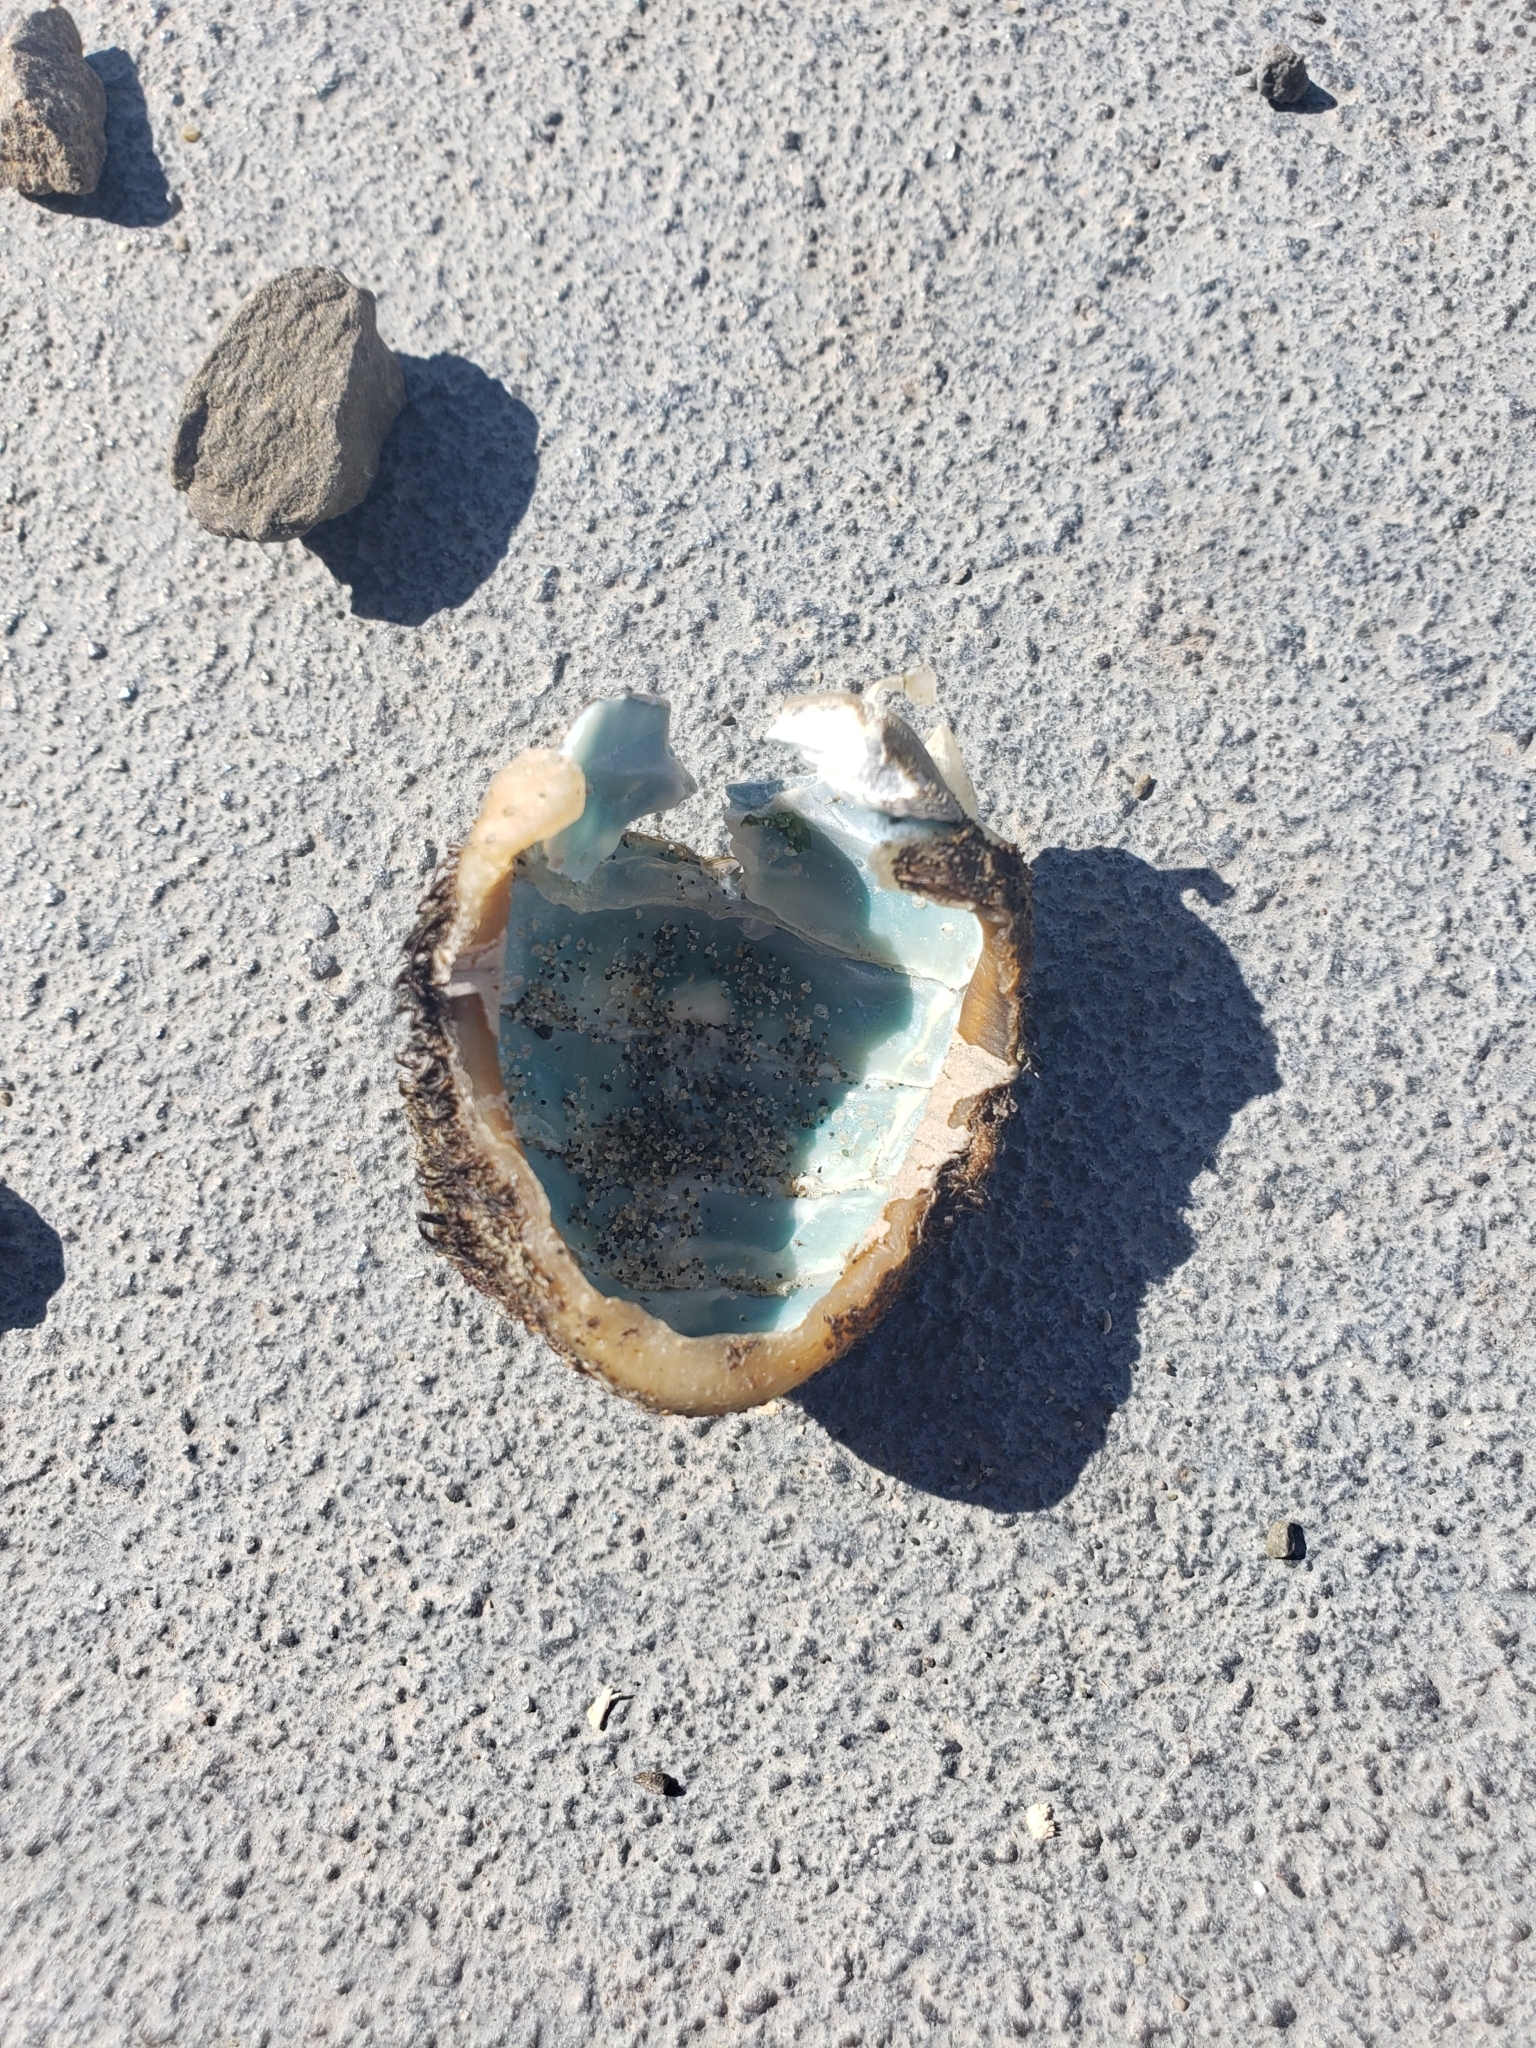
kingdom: Animalia
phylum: Mollusca
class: Polyplacophora
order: Chitonida
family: Mopaliidae
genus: Mopalia
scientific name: Mopalia muscosa
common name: Mossy chiton
